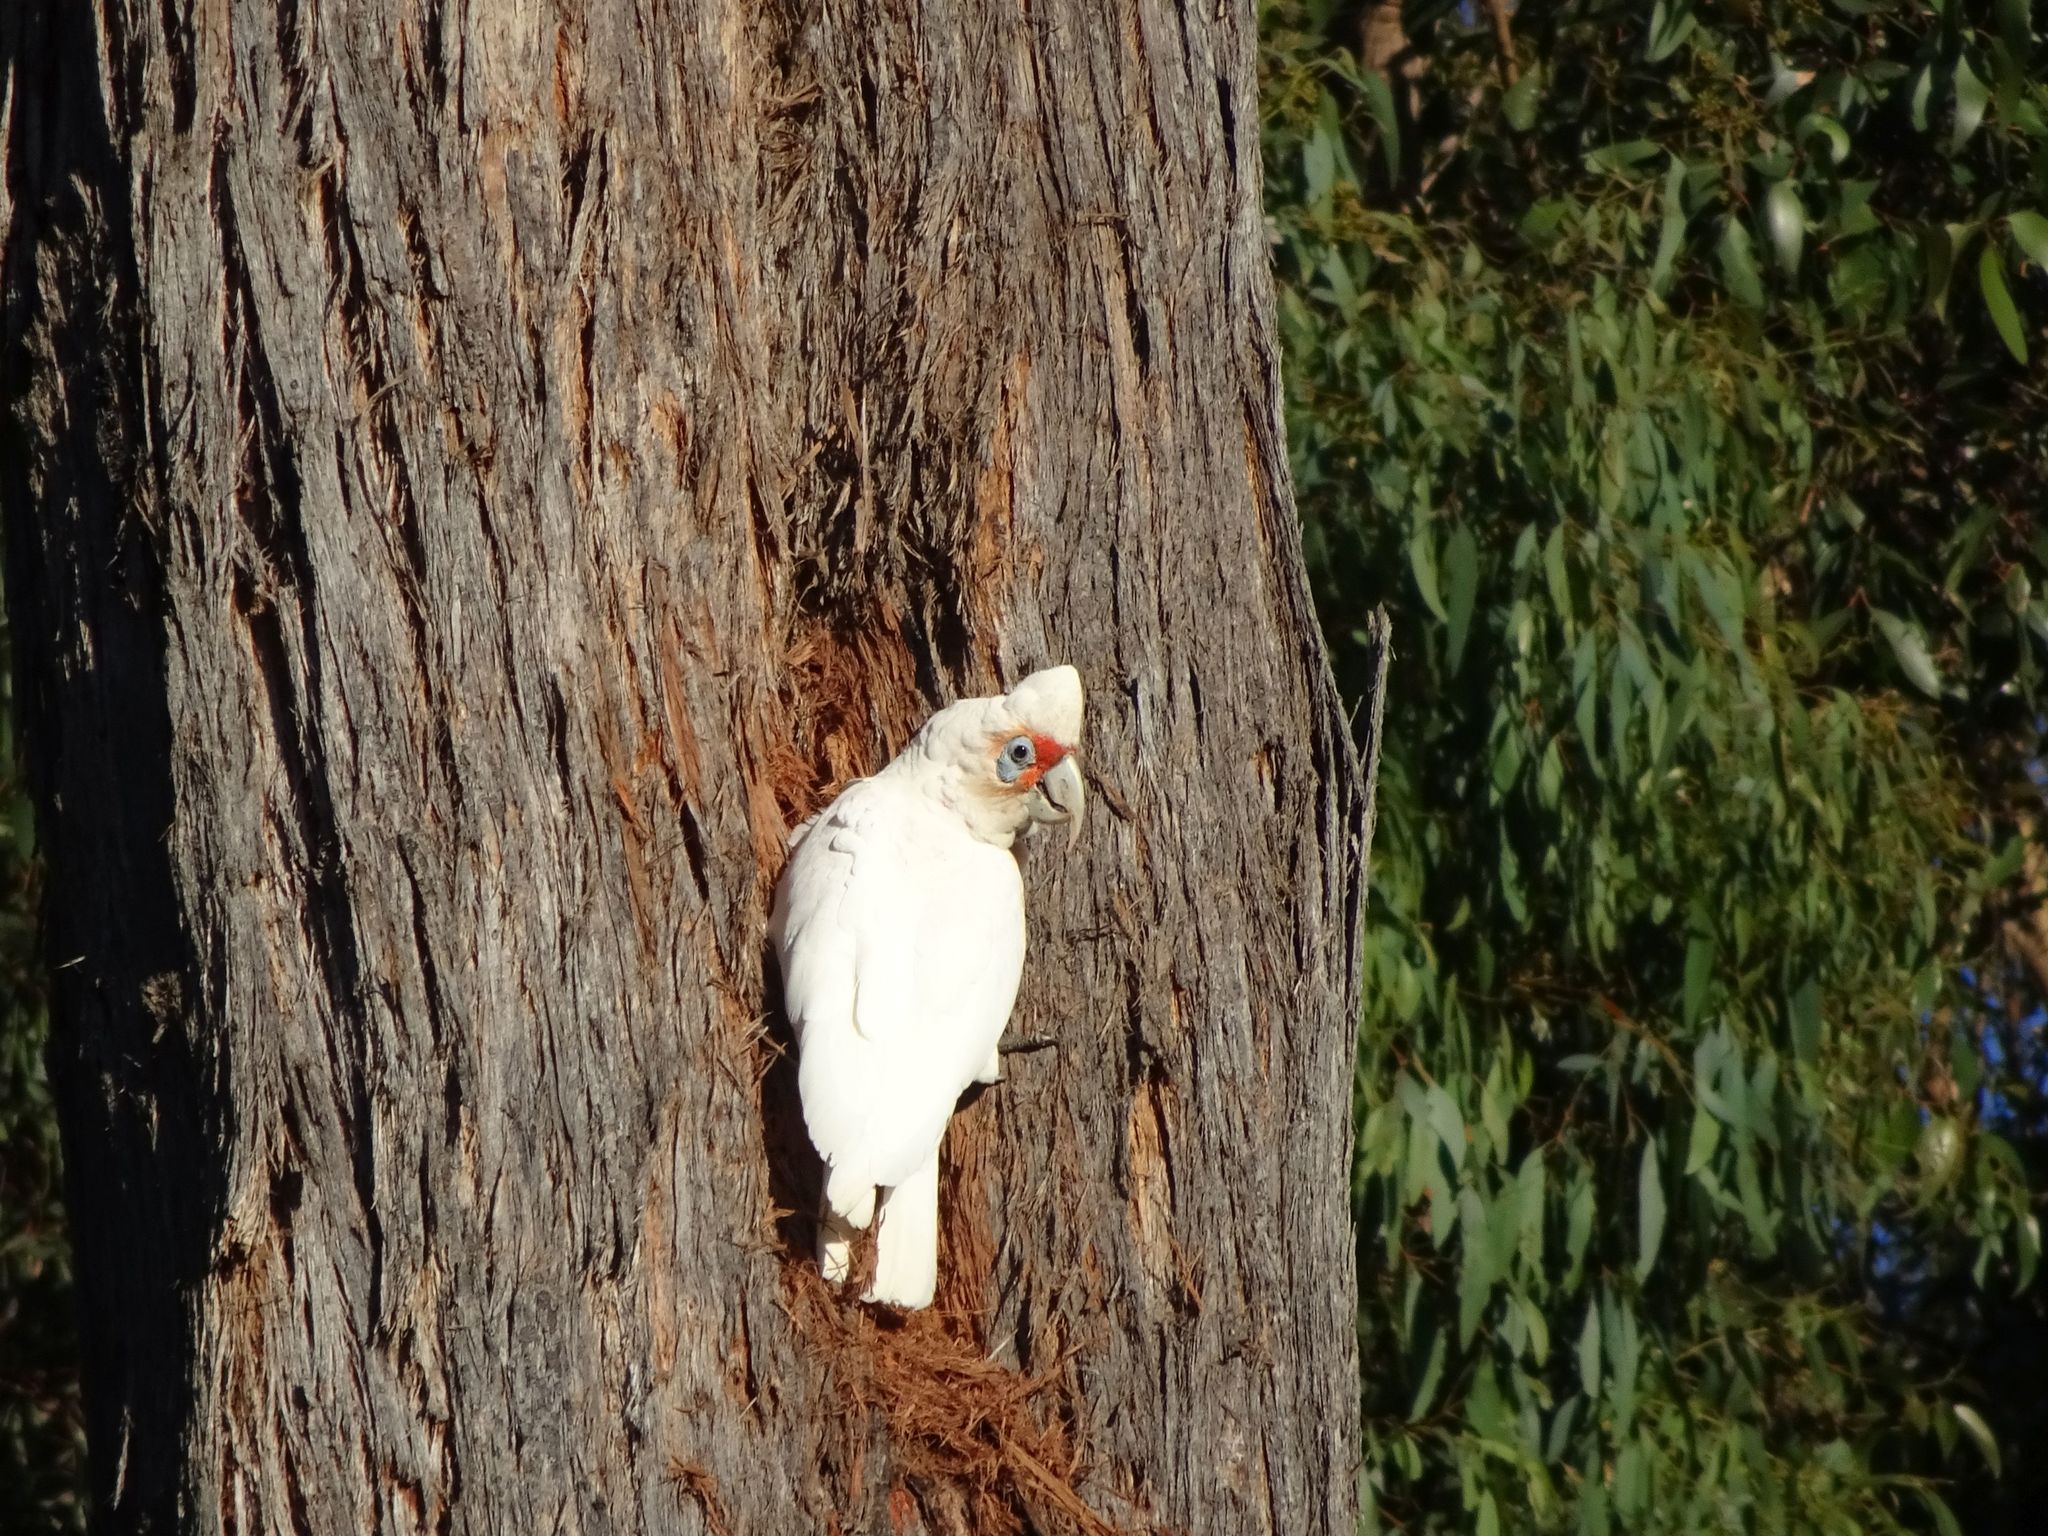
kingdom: Animalia
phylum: Chordata
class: Aves
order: Psittaciformes
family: Psittacidae
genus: Cacatua
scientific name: Cacatua tenuirostris
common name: Long-billed corella
